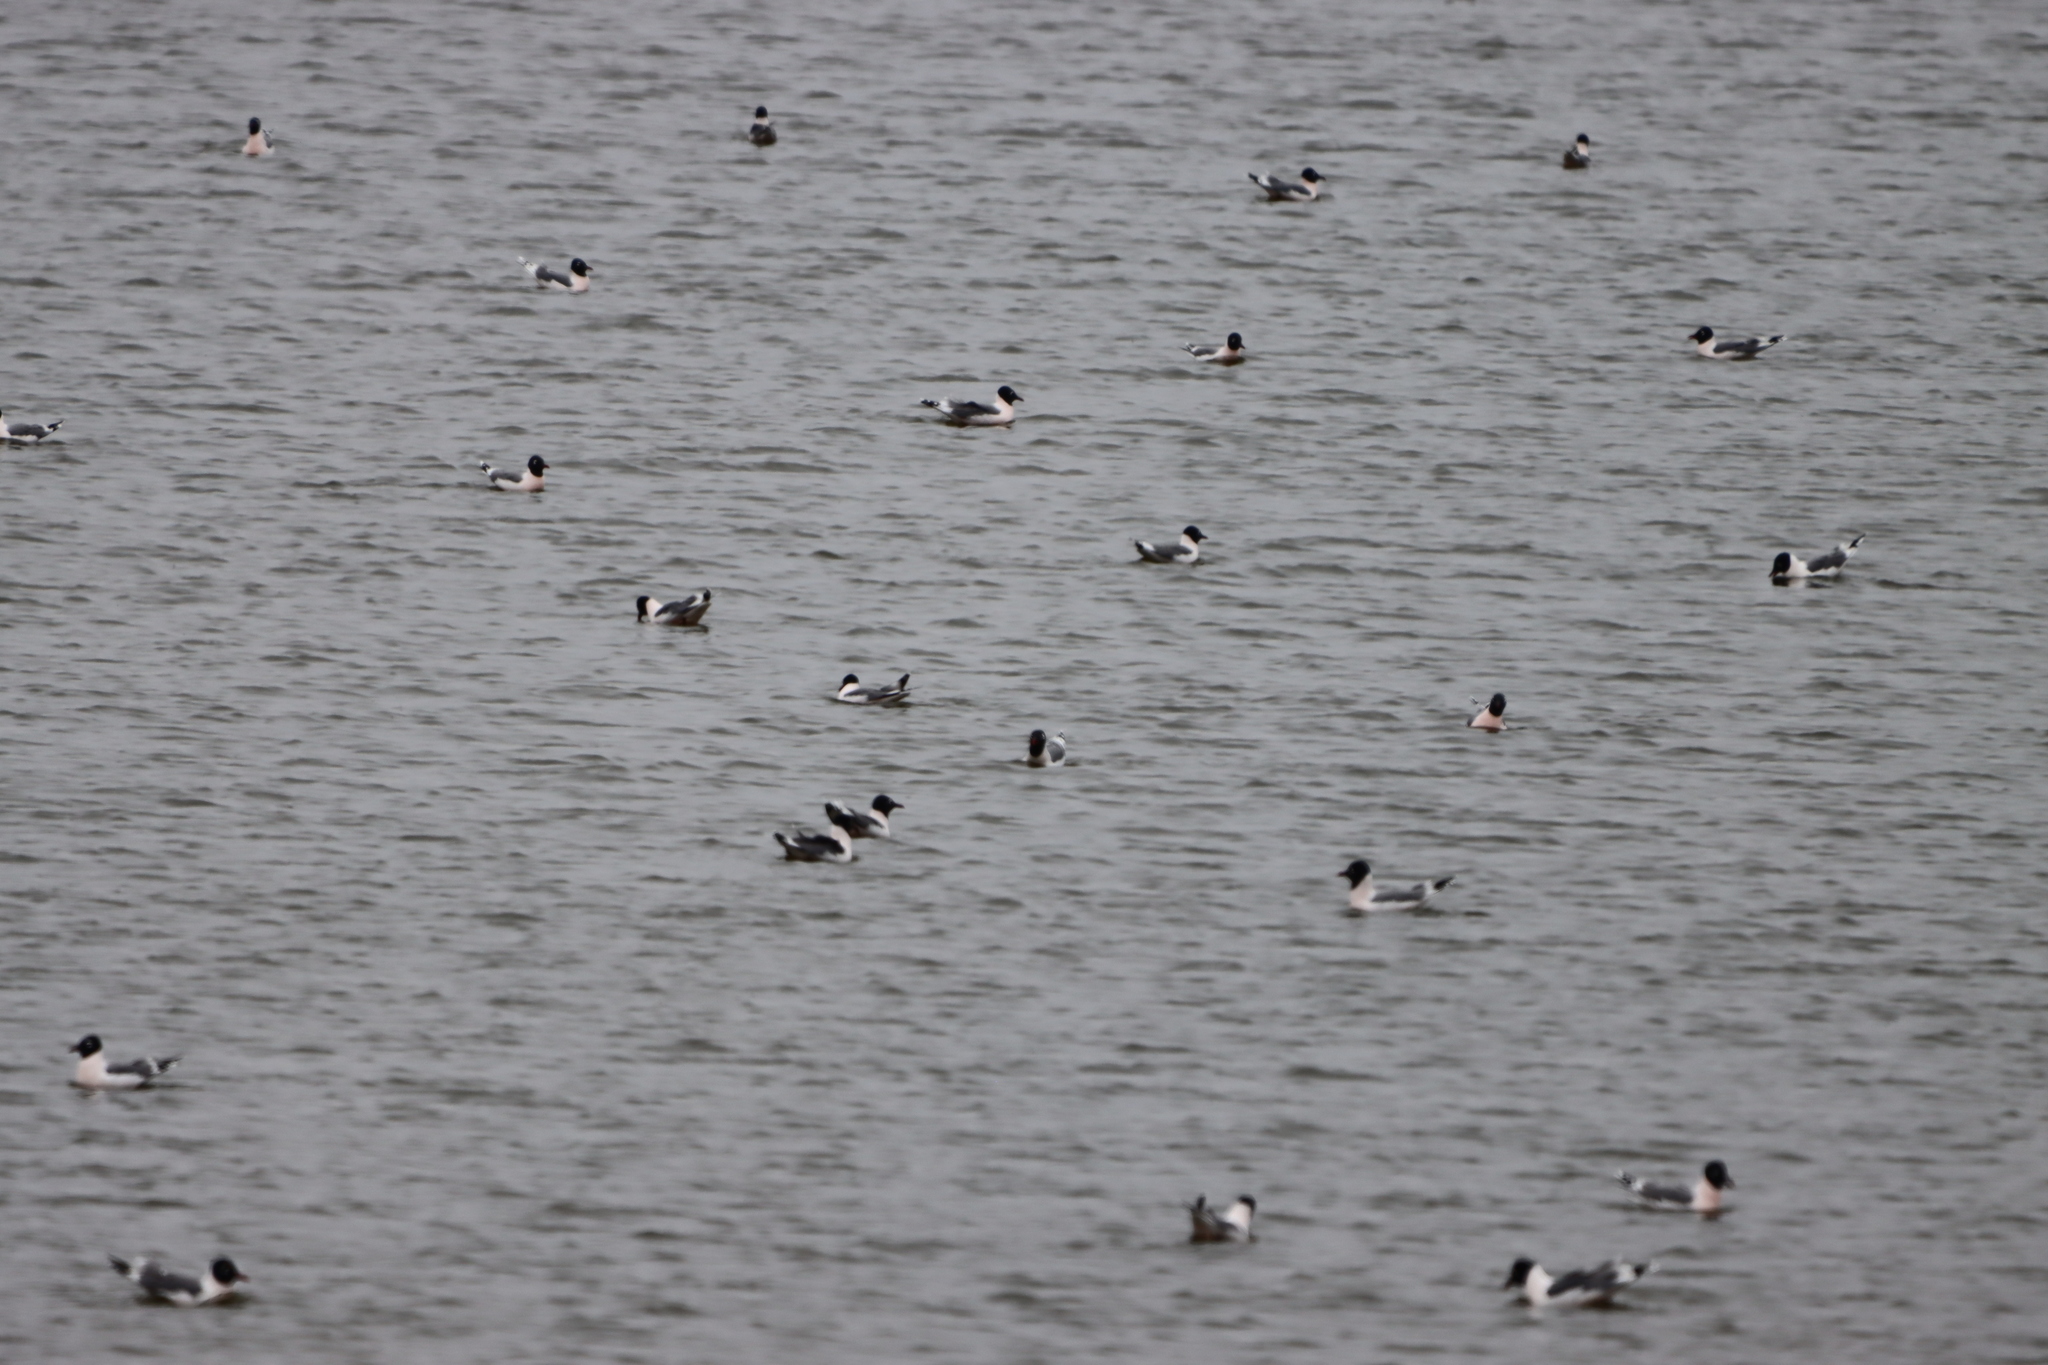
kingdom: Animalia
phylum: Chordata
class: Aves
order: Charadriiformes
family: Laridae
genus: Leucophaeus
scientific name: Leucophaeus pipixcan
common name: Franklin's gull
